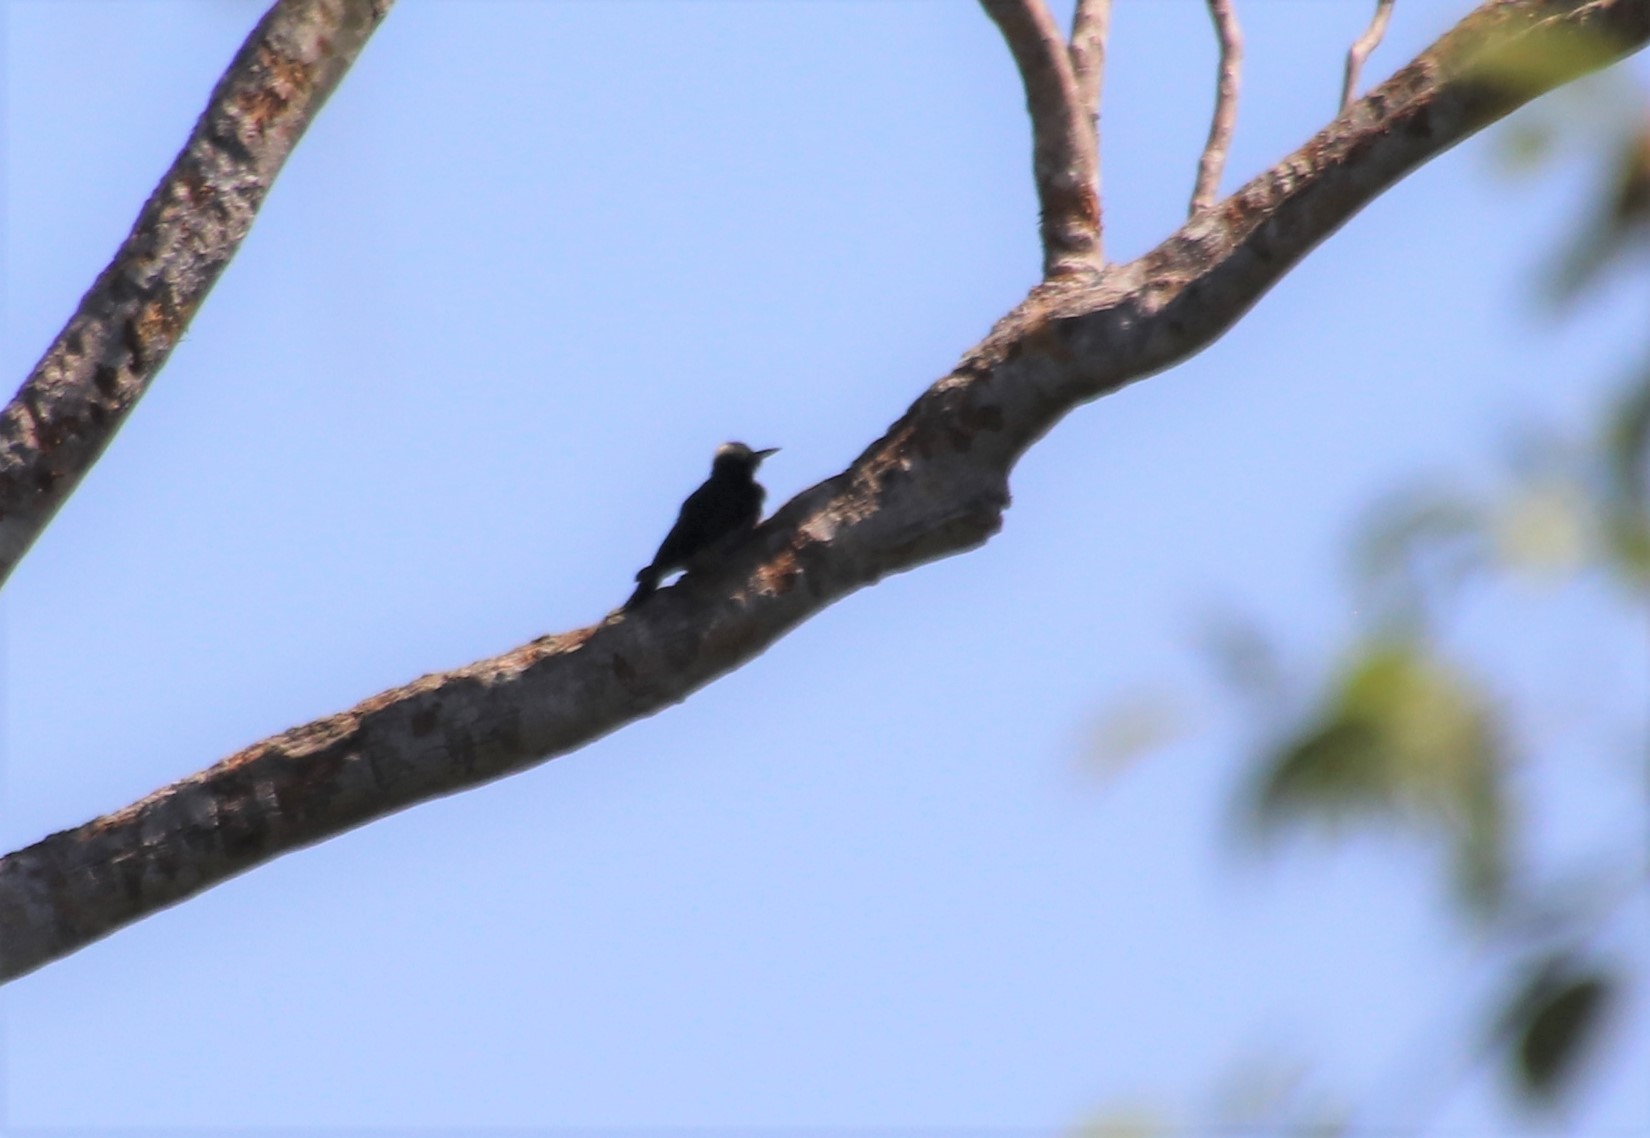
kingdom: Animalia
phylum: Chordata
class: Aves
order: Piciformes
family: Picidae
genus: Melanerpes
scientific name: Melanerpes cruentatus
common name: Yellow-tufted woodpecker
